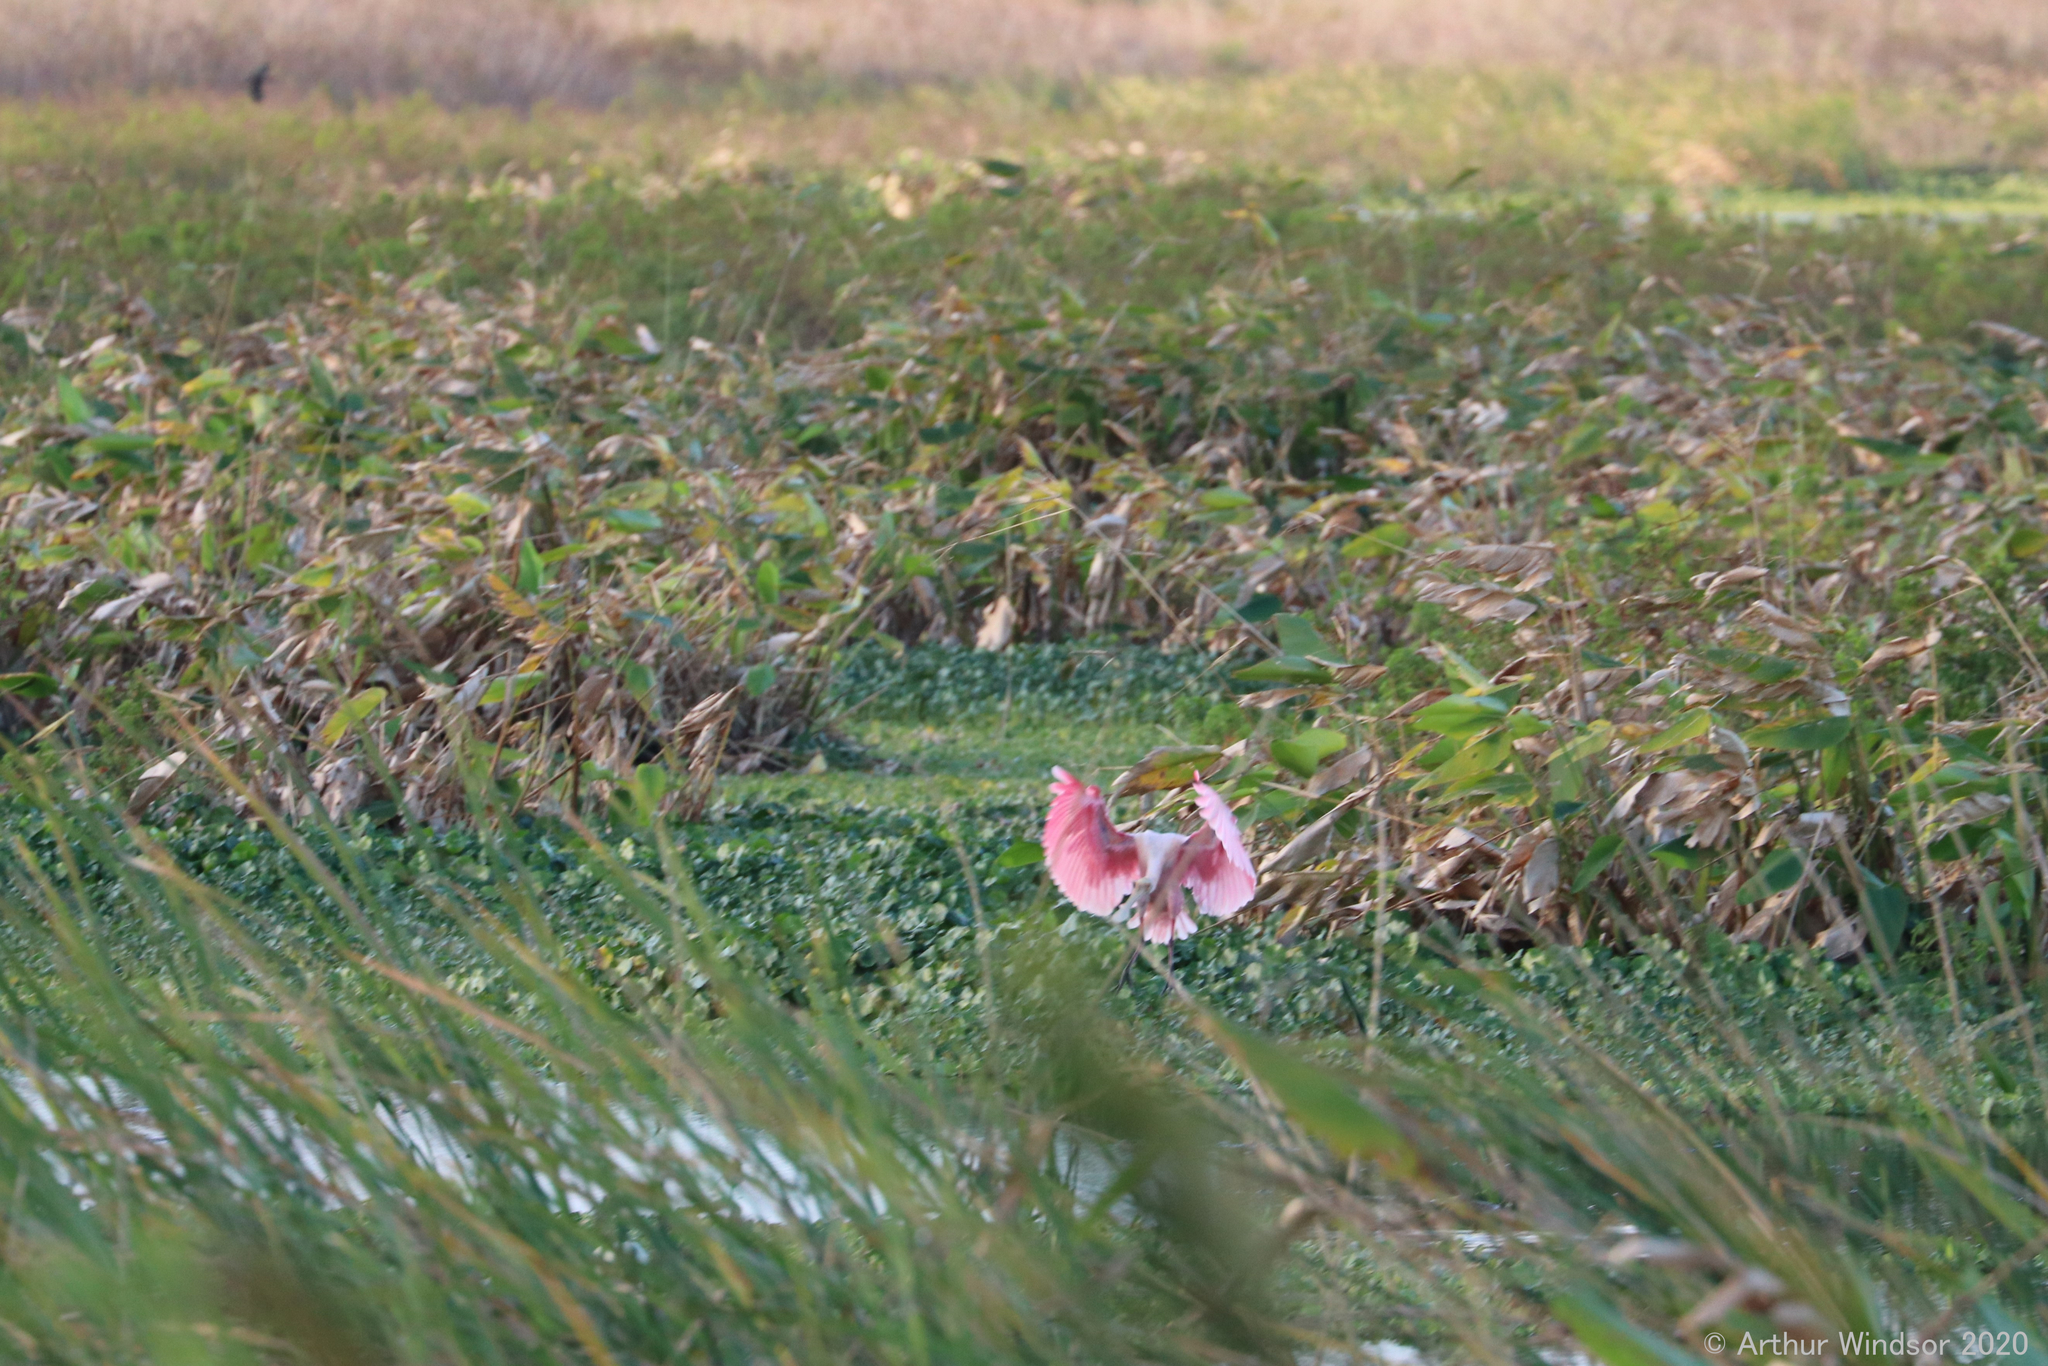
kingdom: Animalia
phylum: Chordata
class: Aves
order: Pelecaniformes
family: Threskiornithidae
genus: Platalea
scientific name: Platalea ajaja
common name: Roseate spoonbill
